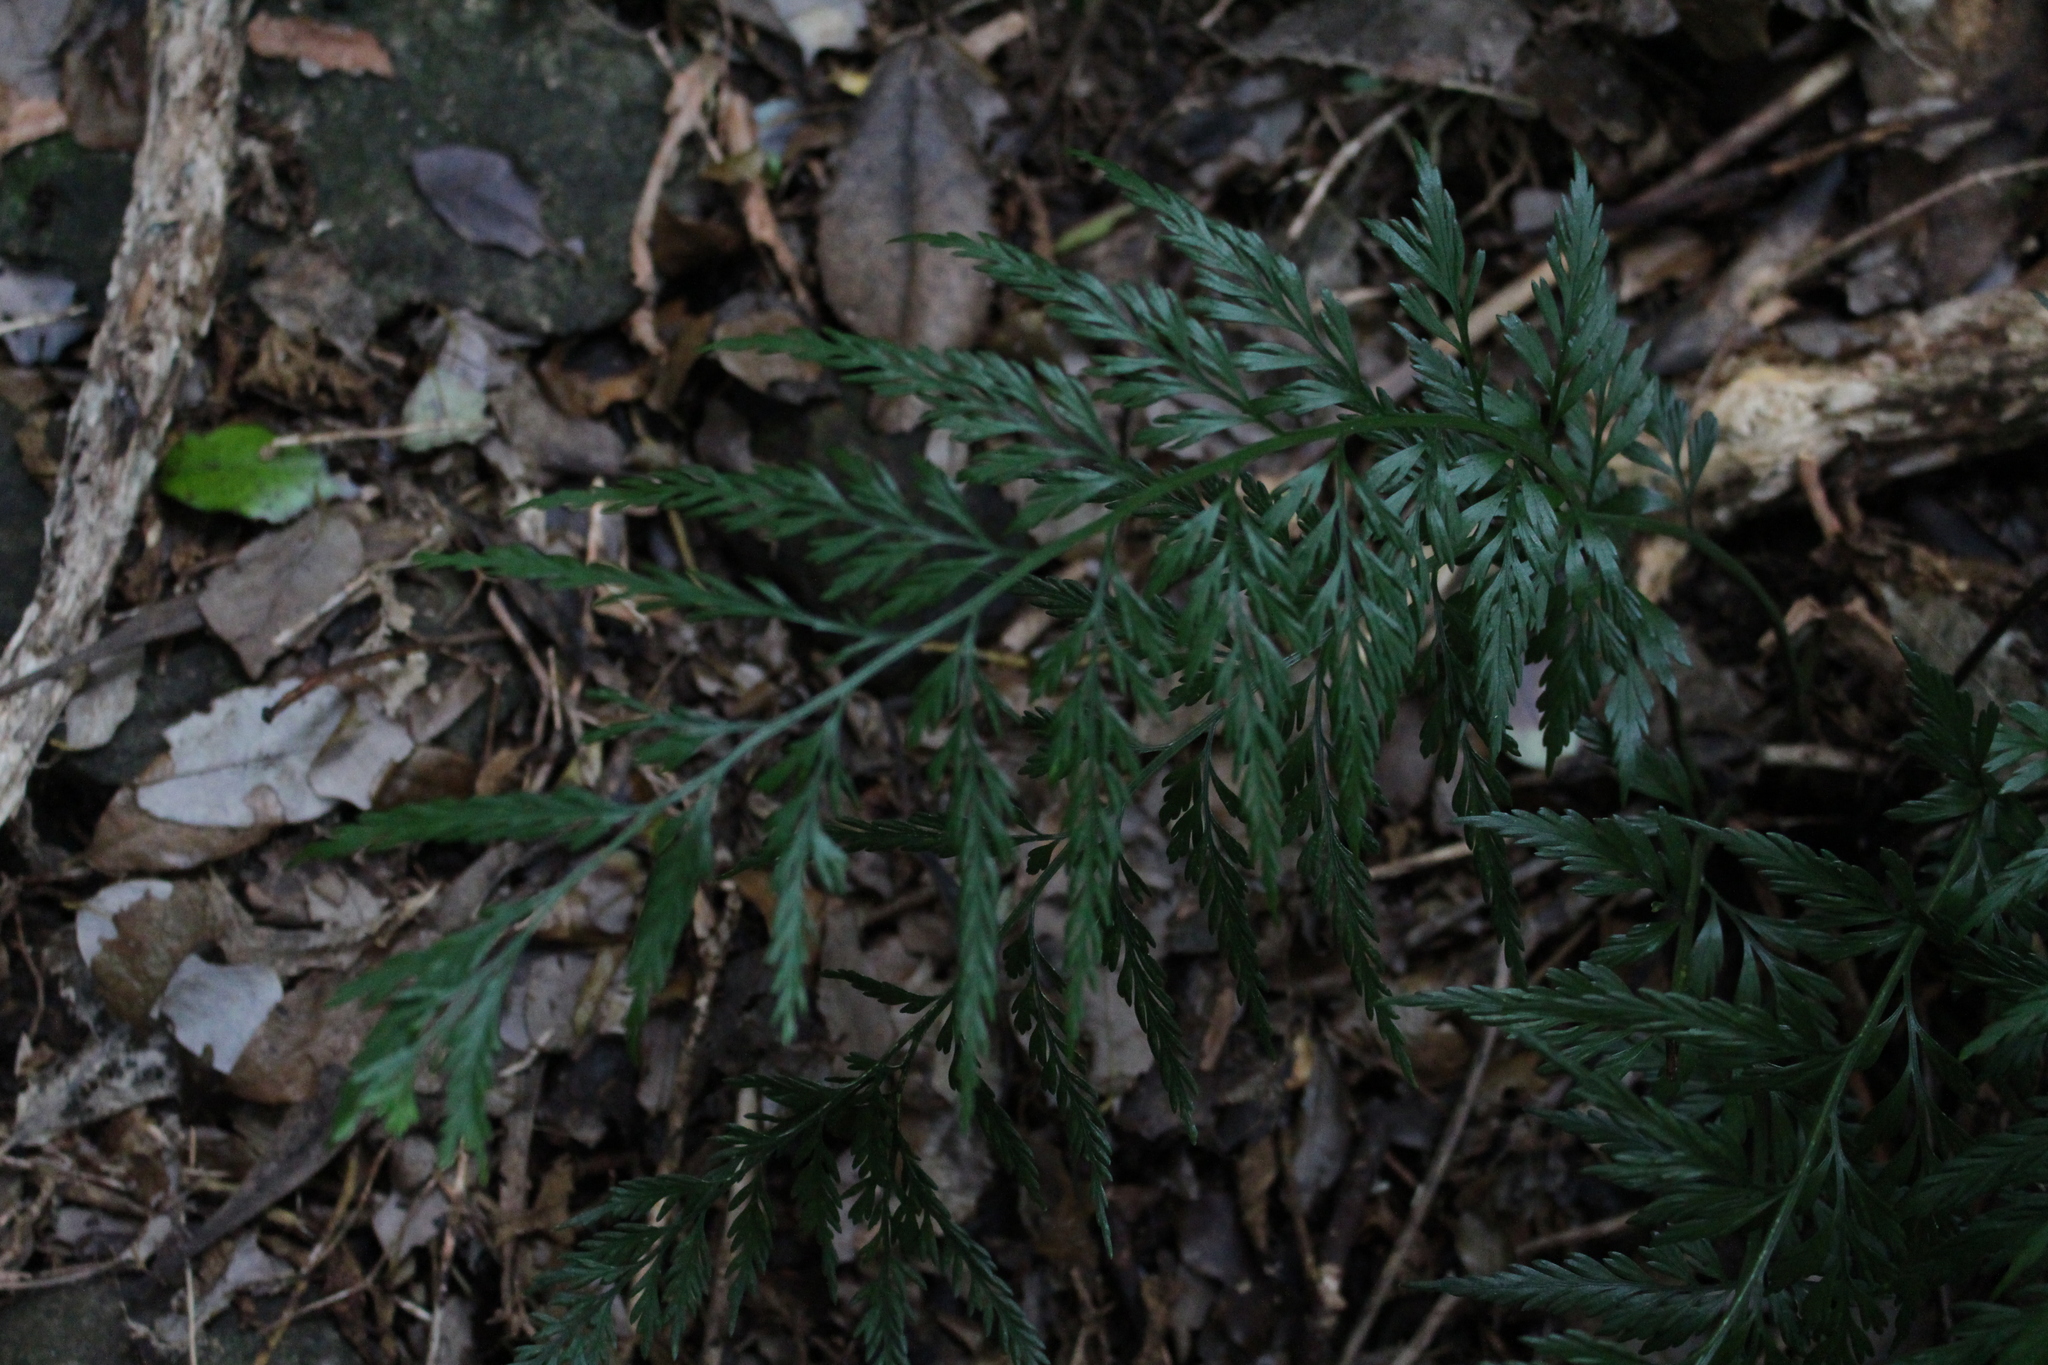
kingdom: Plantae
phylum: Tracheophyta
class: Polypodiopsida
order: Polypodiales
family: Aspleniaceae
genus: Asplenium
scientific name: Asplenium appendiculatum
